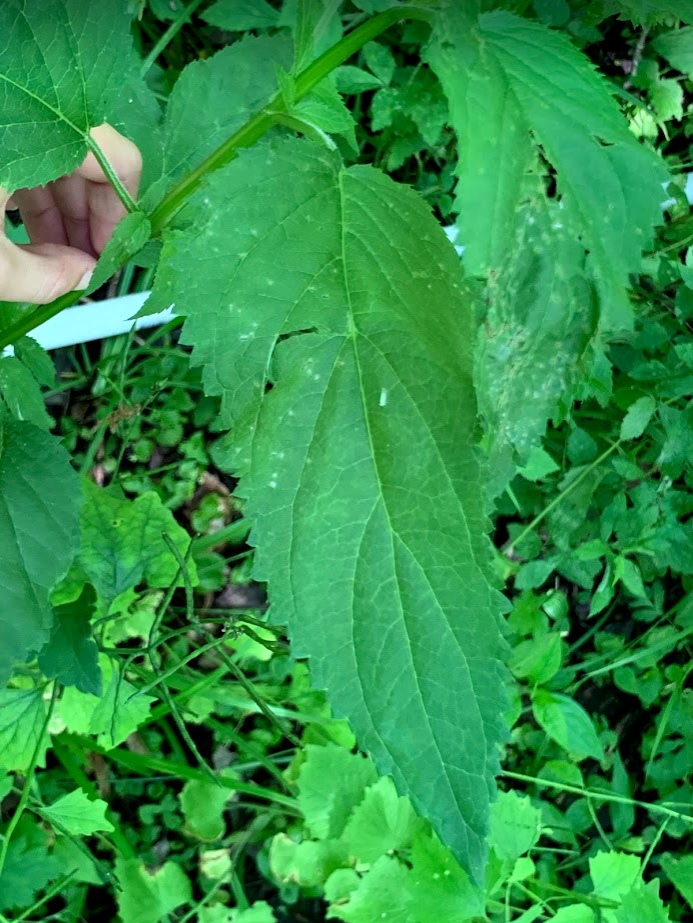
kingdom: Plantae
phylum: Tracheophyta
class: Magnoliopsida
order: Lamiales
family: Scrophulariaceae
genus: Scrophularia
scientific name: Scrophularia marilandica
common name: Eastern figwort
